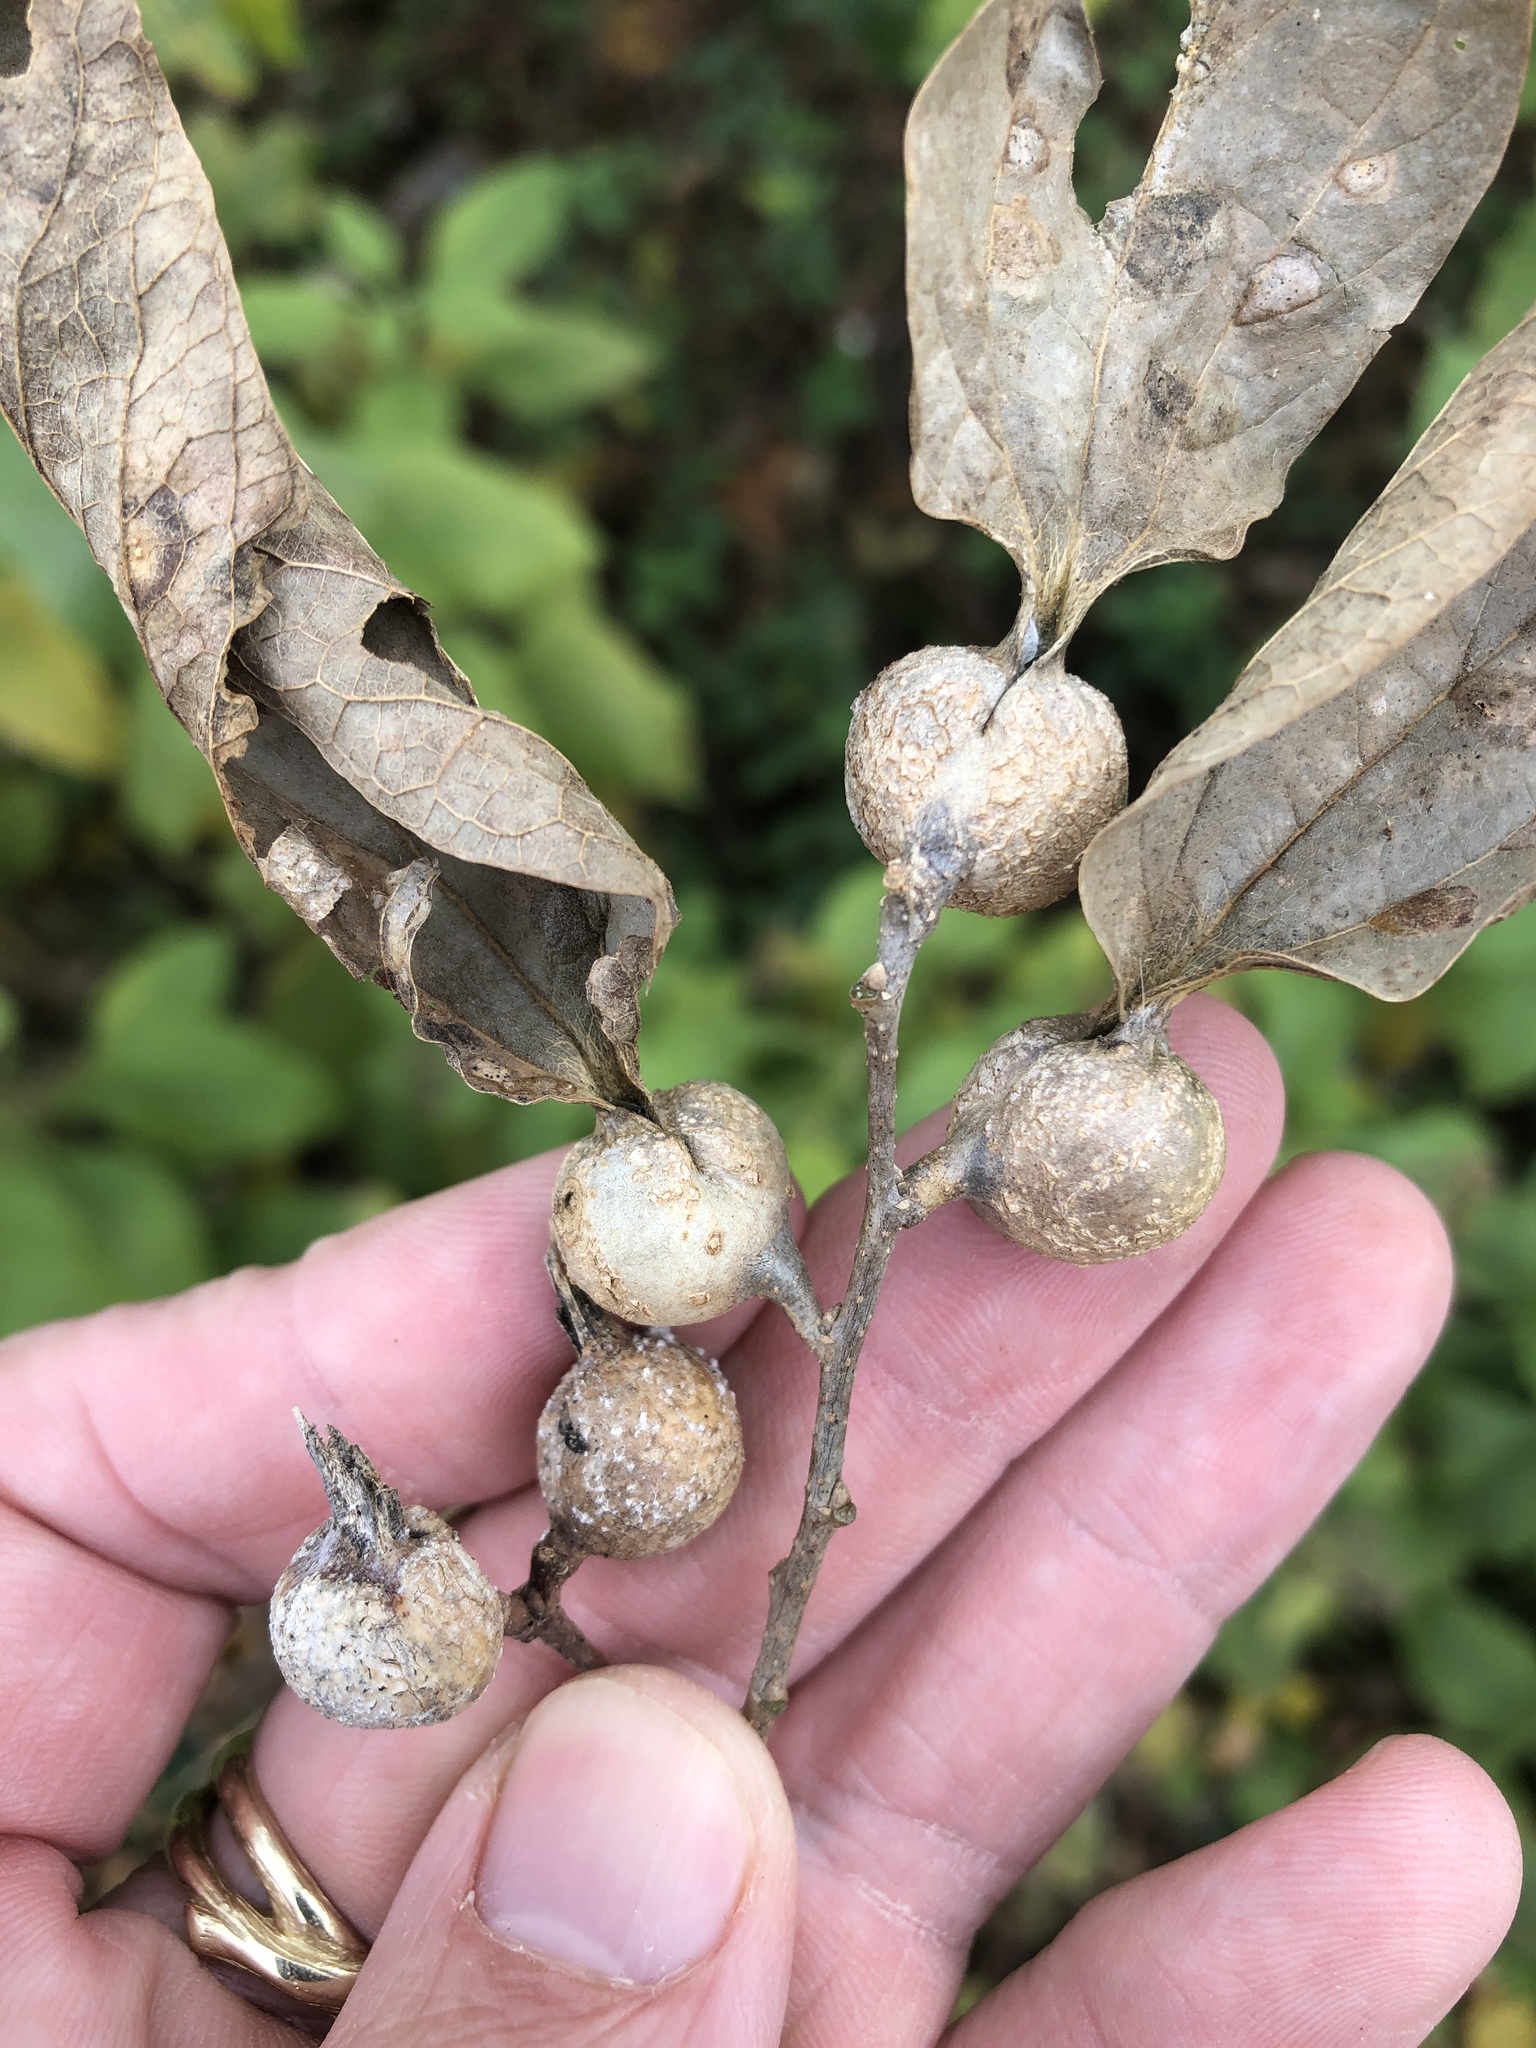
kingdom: Animalia
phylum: Arthropoda
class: Insecta
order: Hemiptera
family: Aphalaridae
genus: Pachypsylla
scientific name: Pachypsylla venusta
